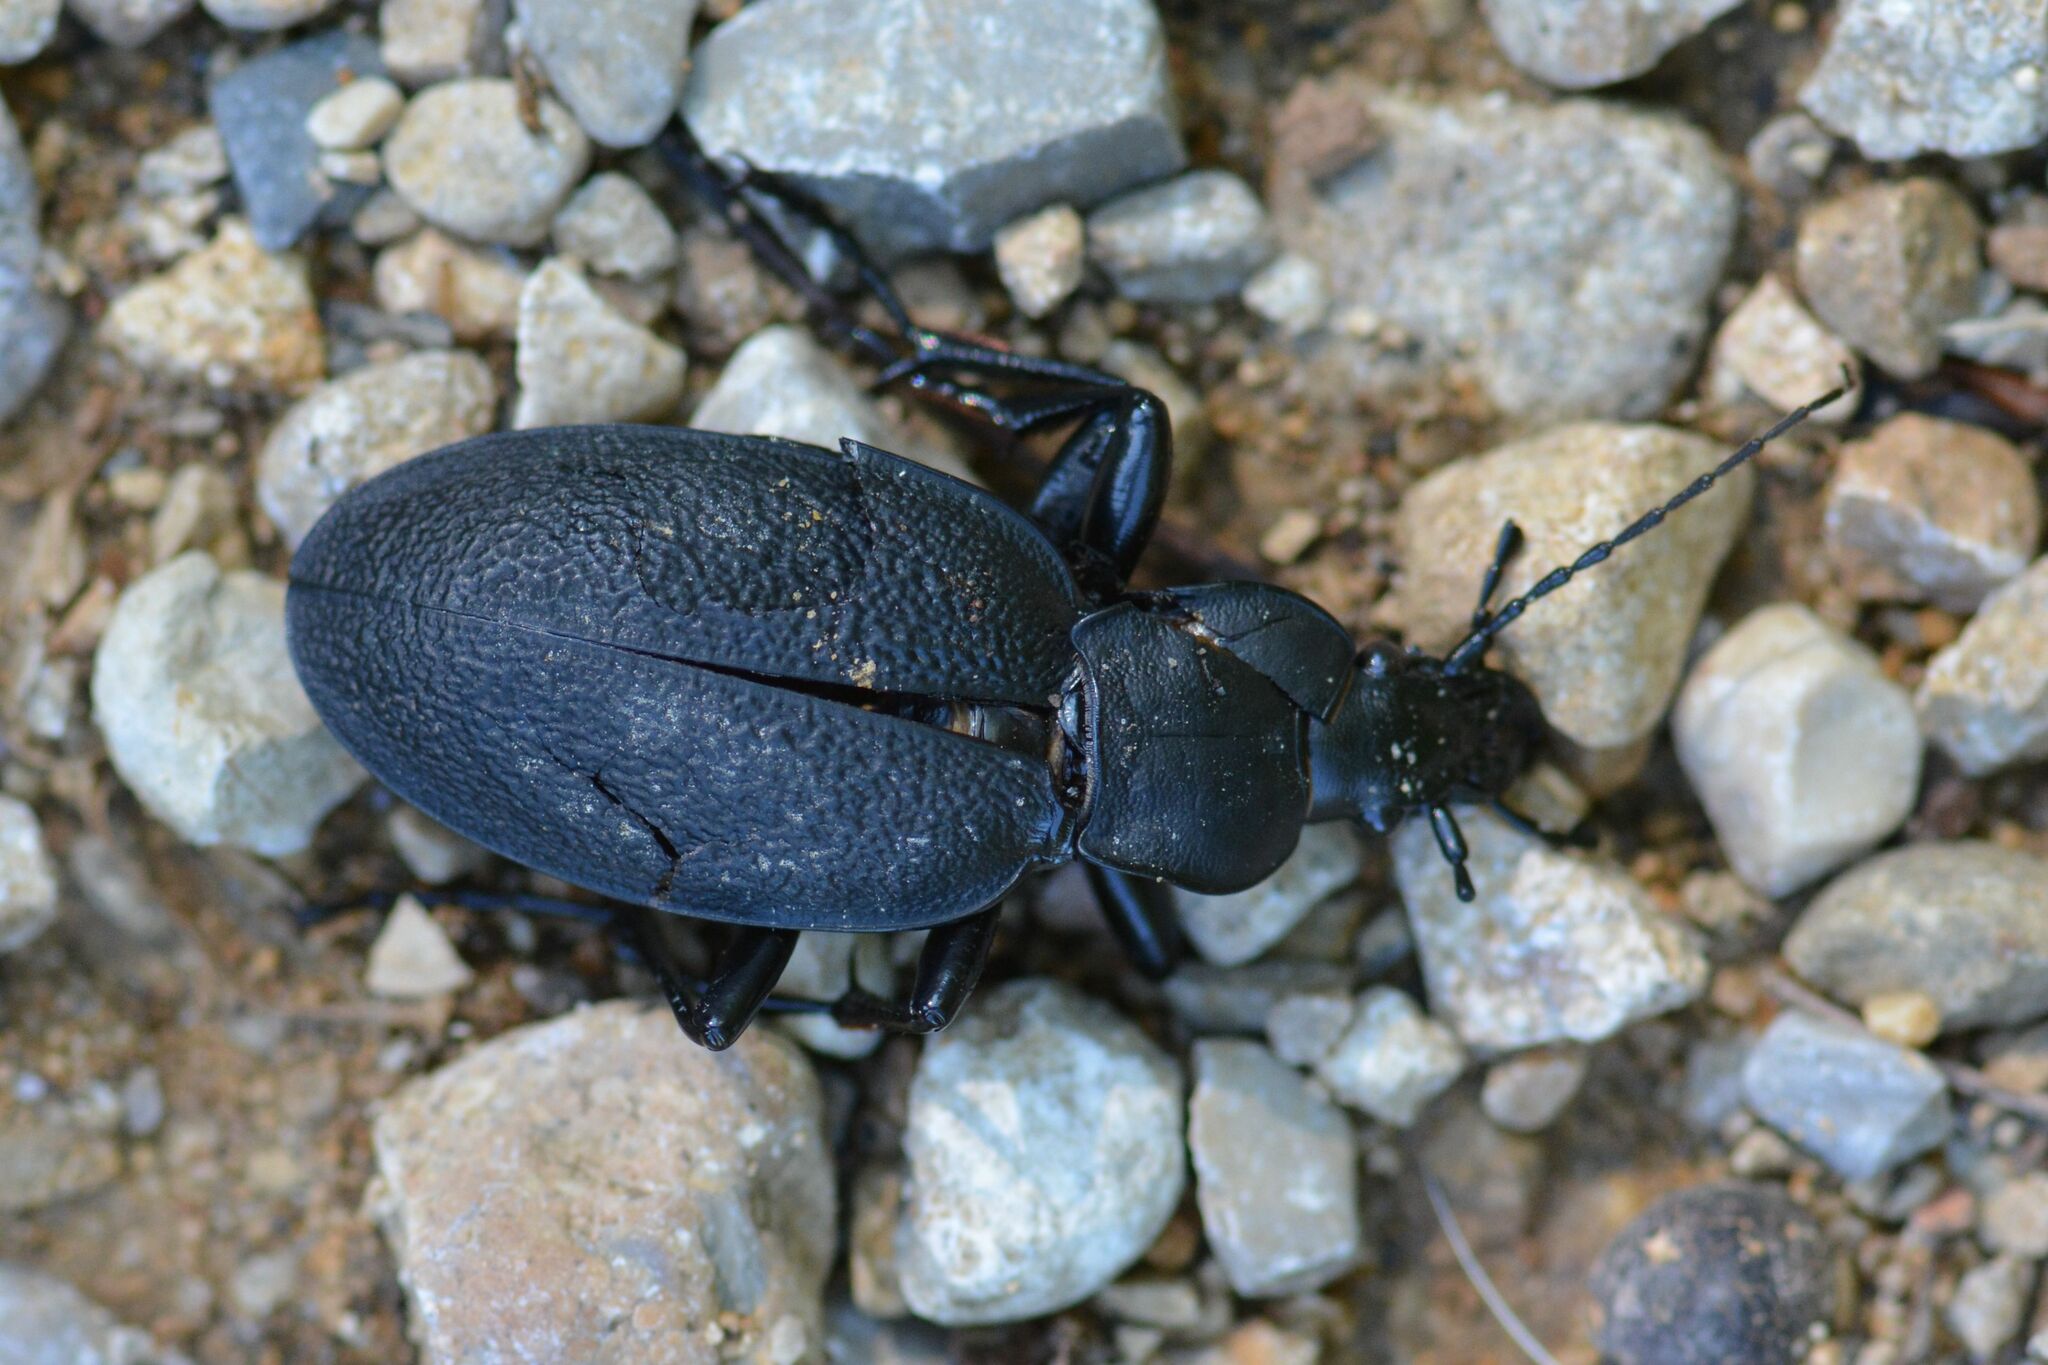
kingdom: Animalia
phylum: Arthropoda
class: Insecta
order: Coleoptera
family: Carabidae
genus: Carabus
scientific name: Carabus coriaceus
